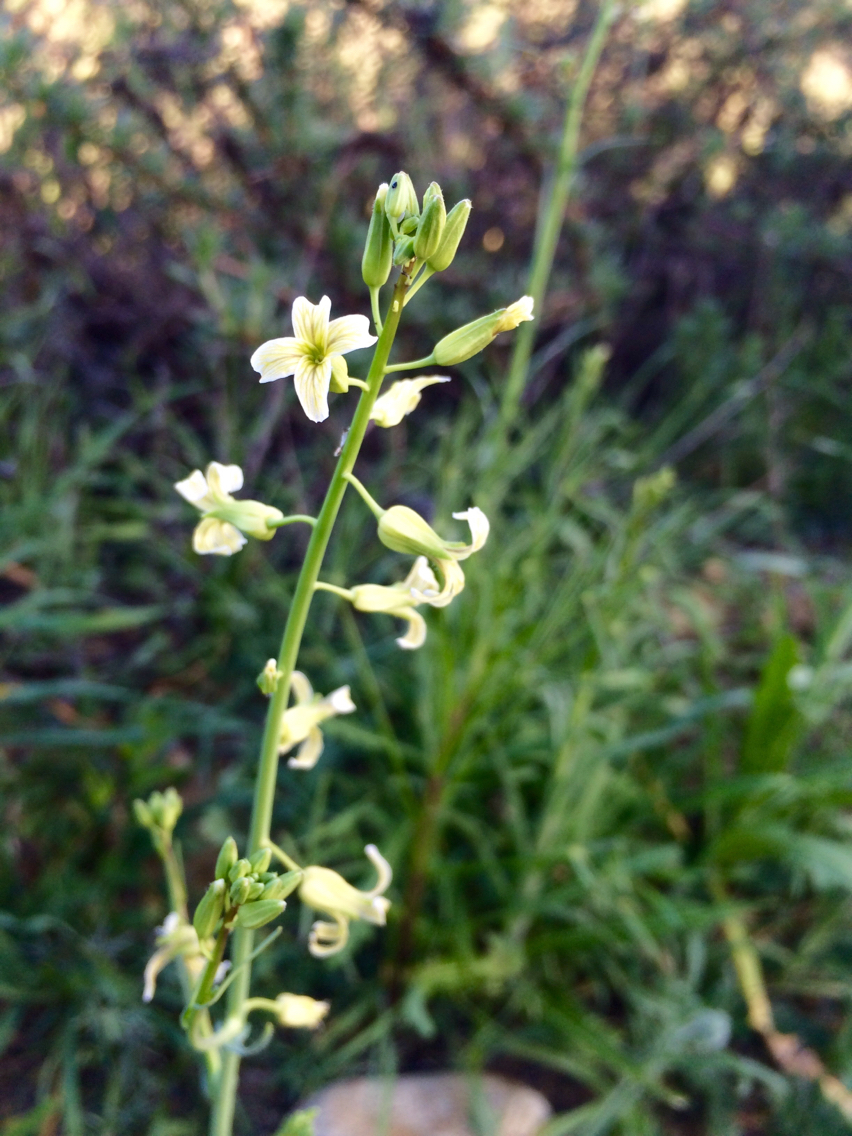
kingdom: Plantae
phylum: Tracheophyta
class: Magnoliopsida
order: Brassicales
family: Brassicaceae
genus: Streptanthus
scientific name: Streptanthus heterophyllus
